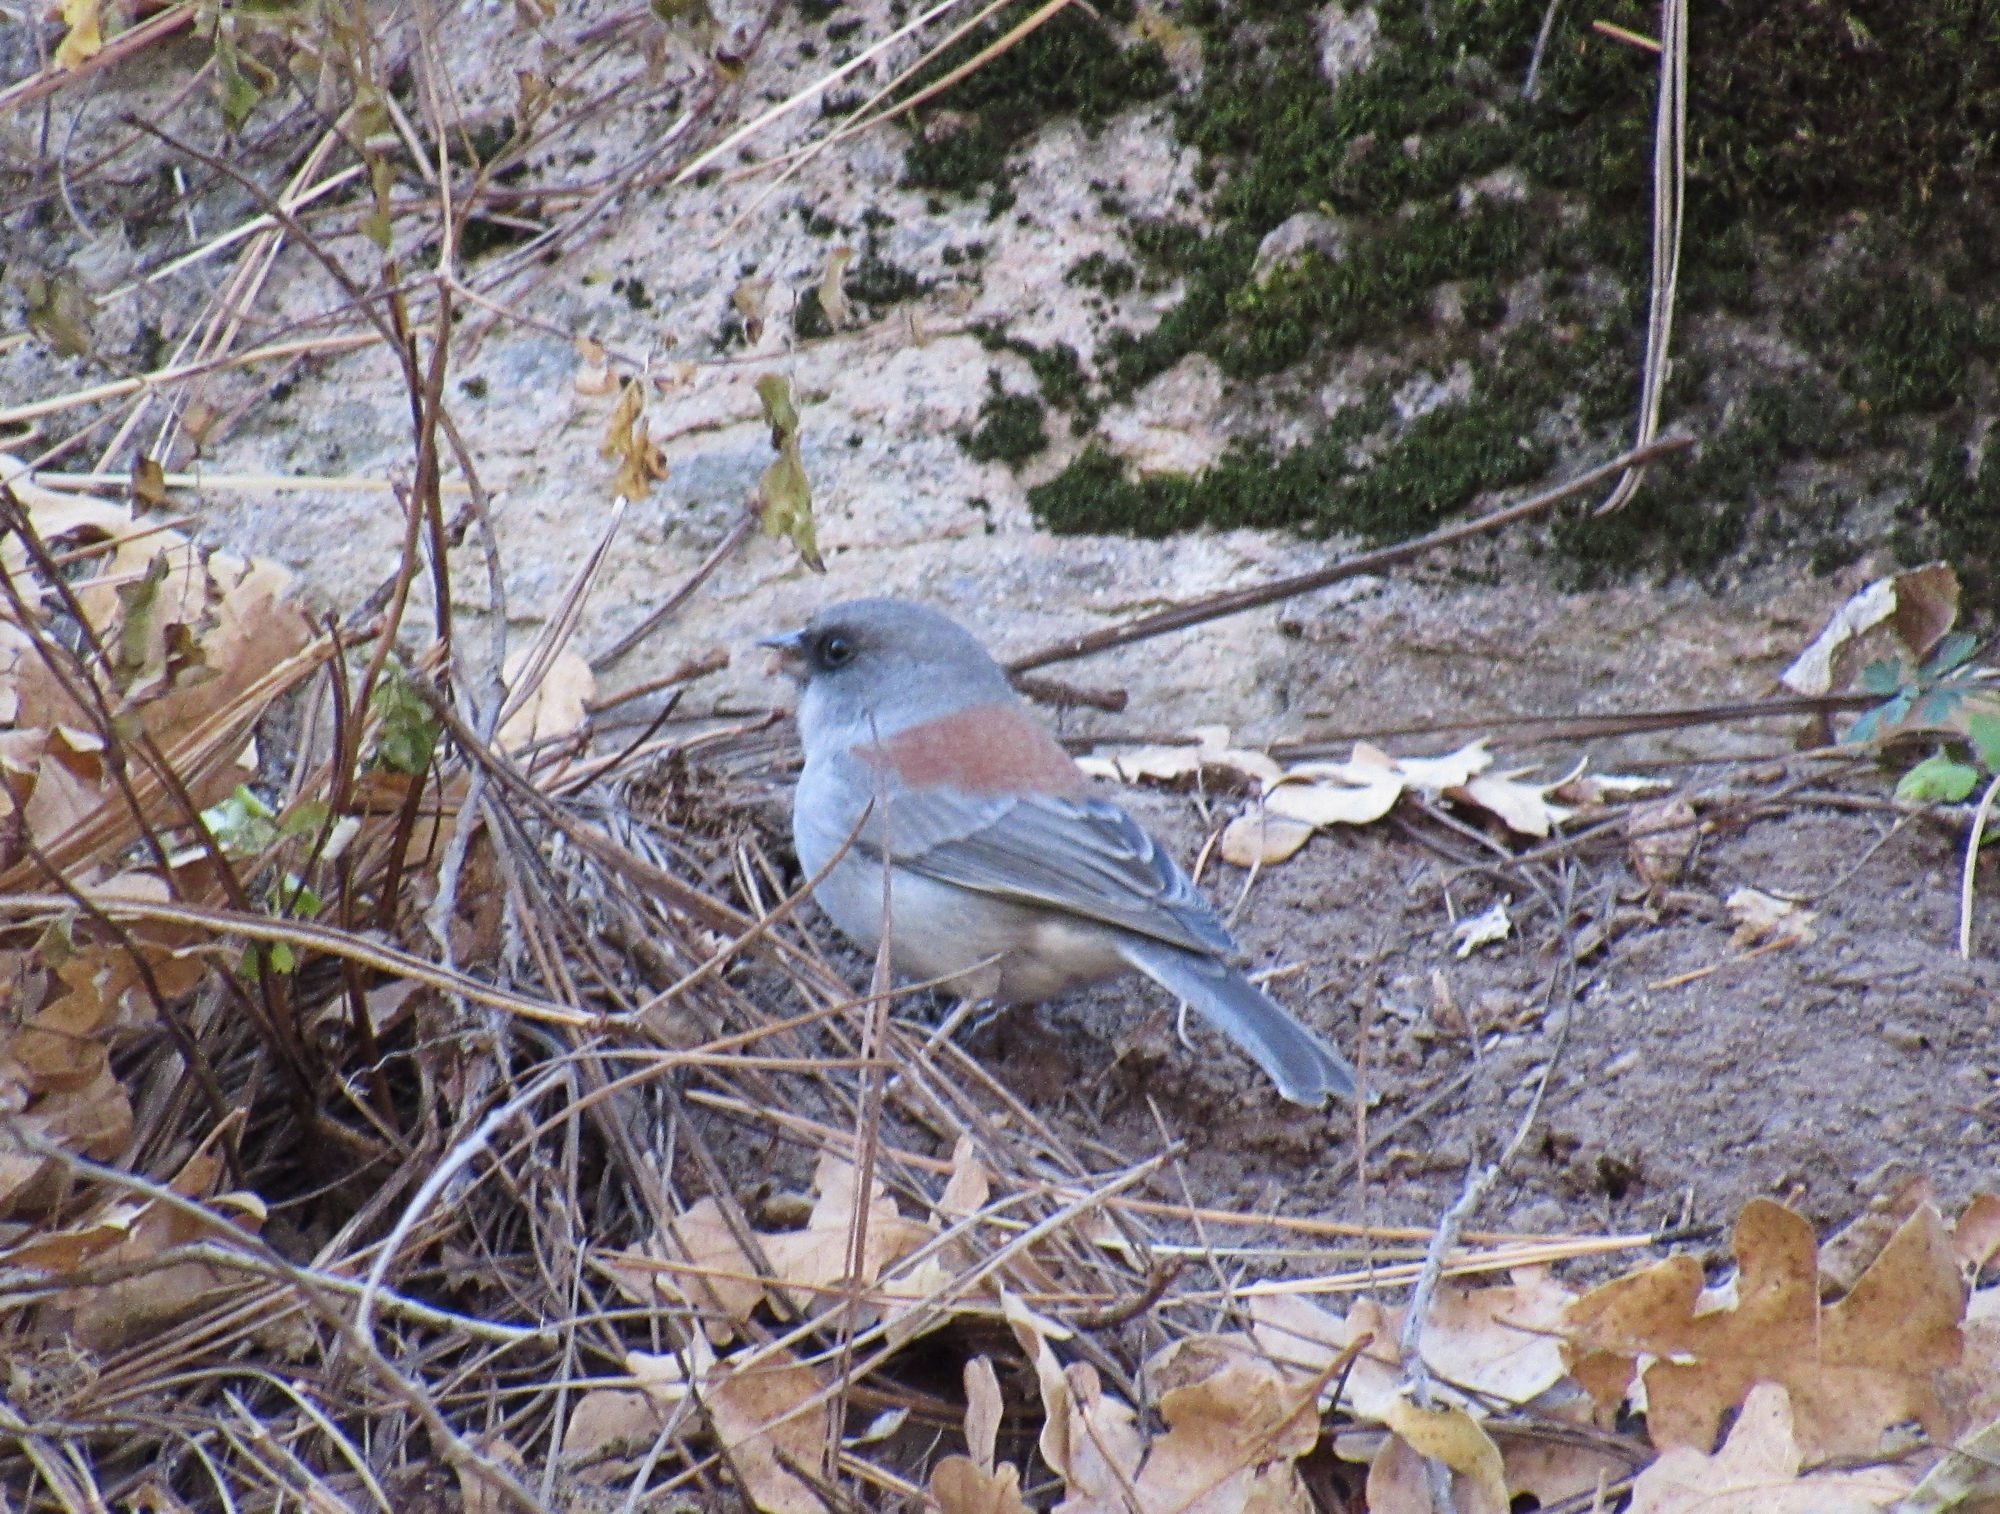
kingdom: Animalia
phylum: Chordata
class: Aves
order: Passeriformes
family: Passerellidae
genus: Junco
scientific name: Junco hyemalis
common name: Dark-eyed junco
